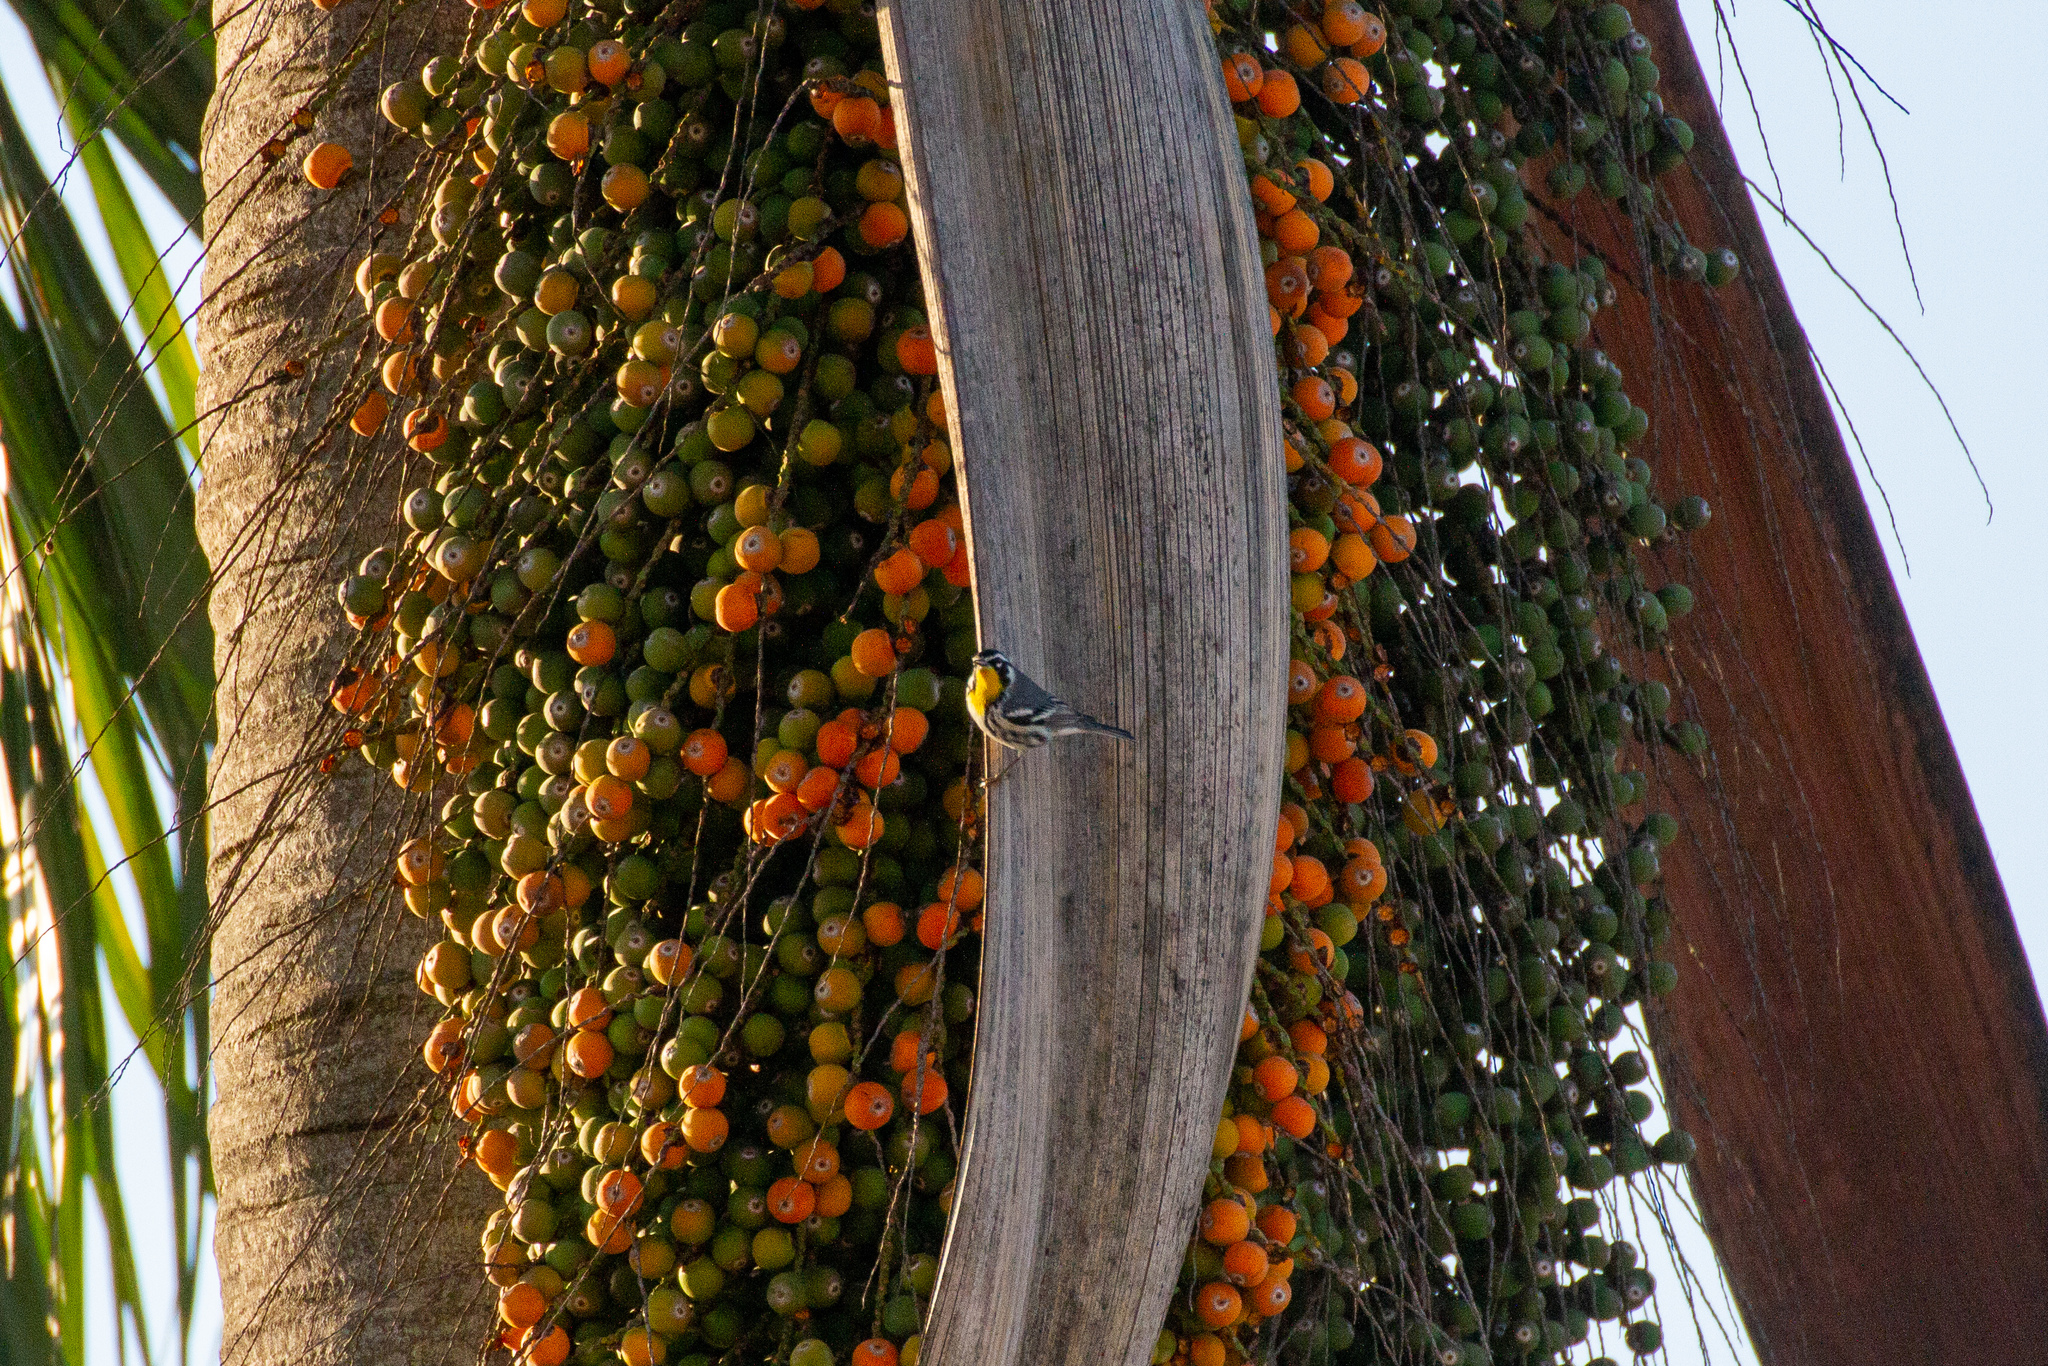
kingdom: Animalia
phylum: Chordata
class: Aves
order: Passeriformes
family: Parulidae
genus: Setophaga
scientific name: Setophaga dominica
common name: Yellow-throated warbler
